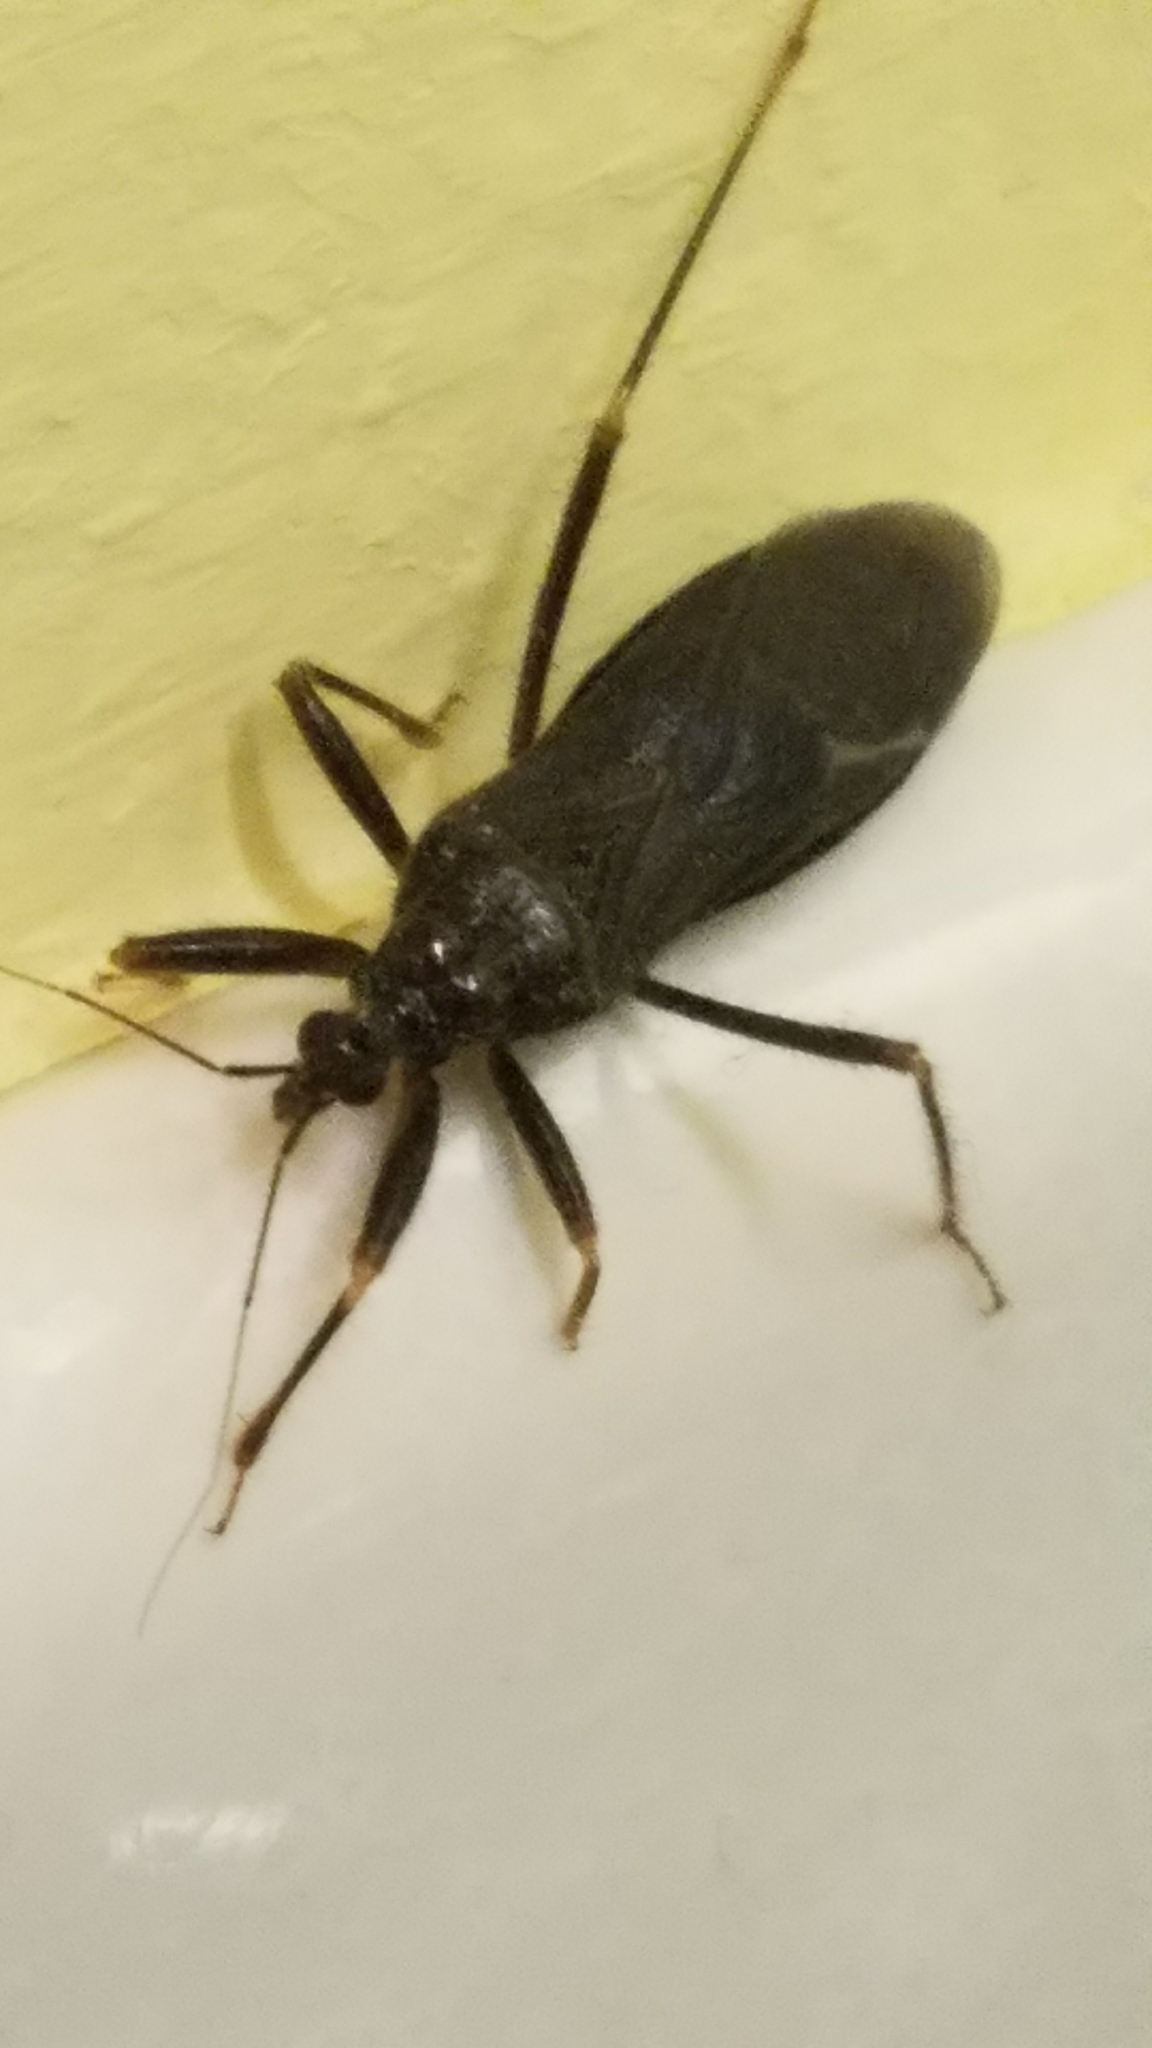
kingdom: Animalia
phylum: Arthropoda
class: Insecta
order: Hemiptera
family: Reduviidae
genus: Reduvius
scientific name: Reduvius personatus
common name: Masked hunter
